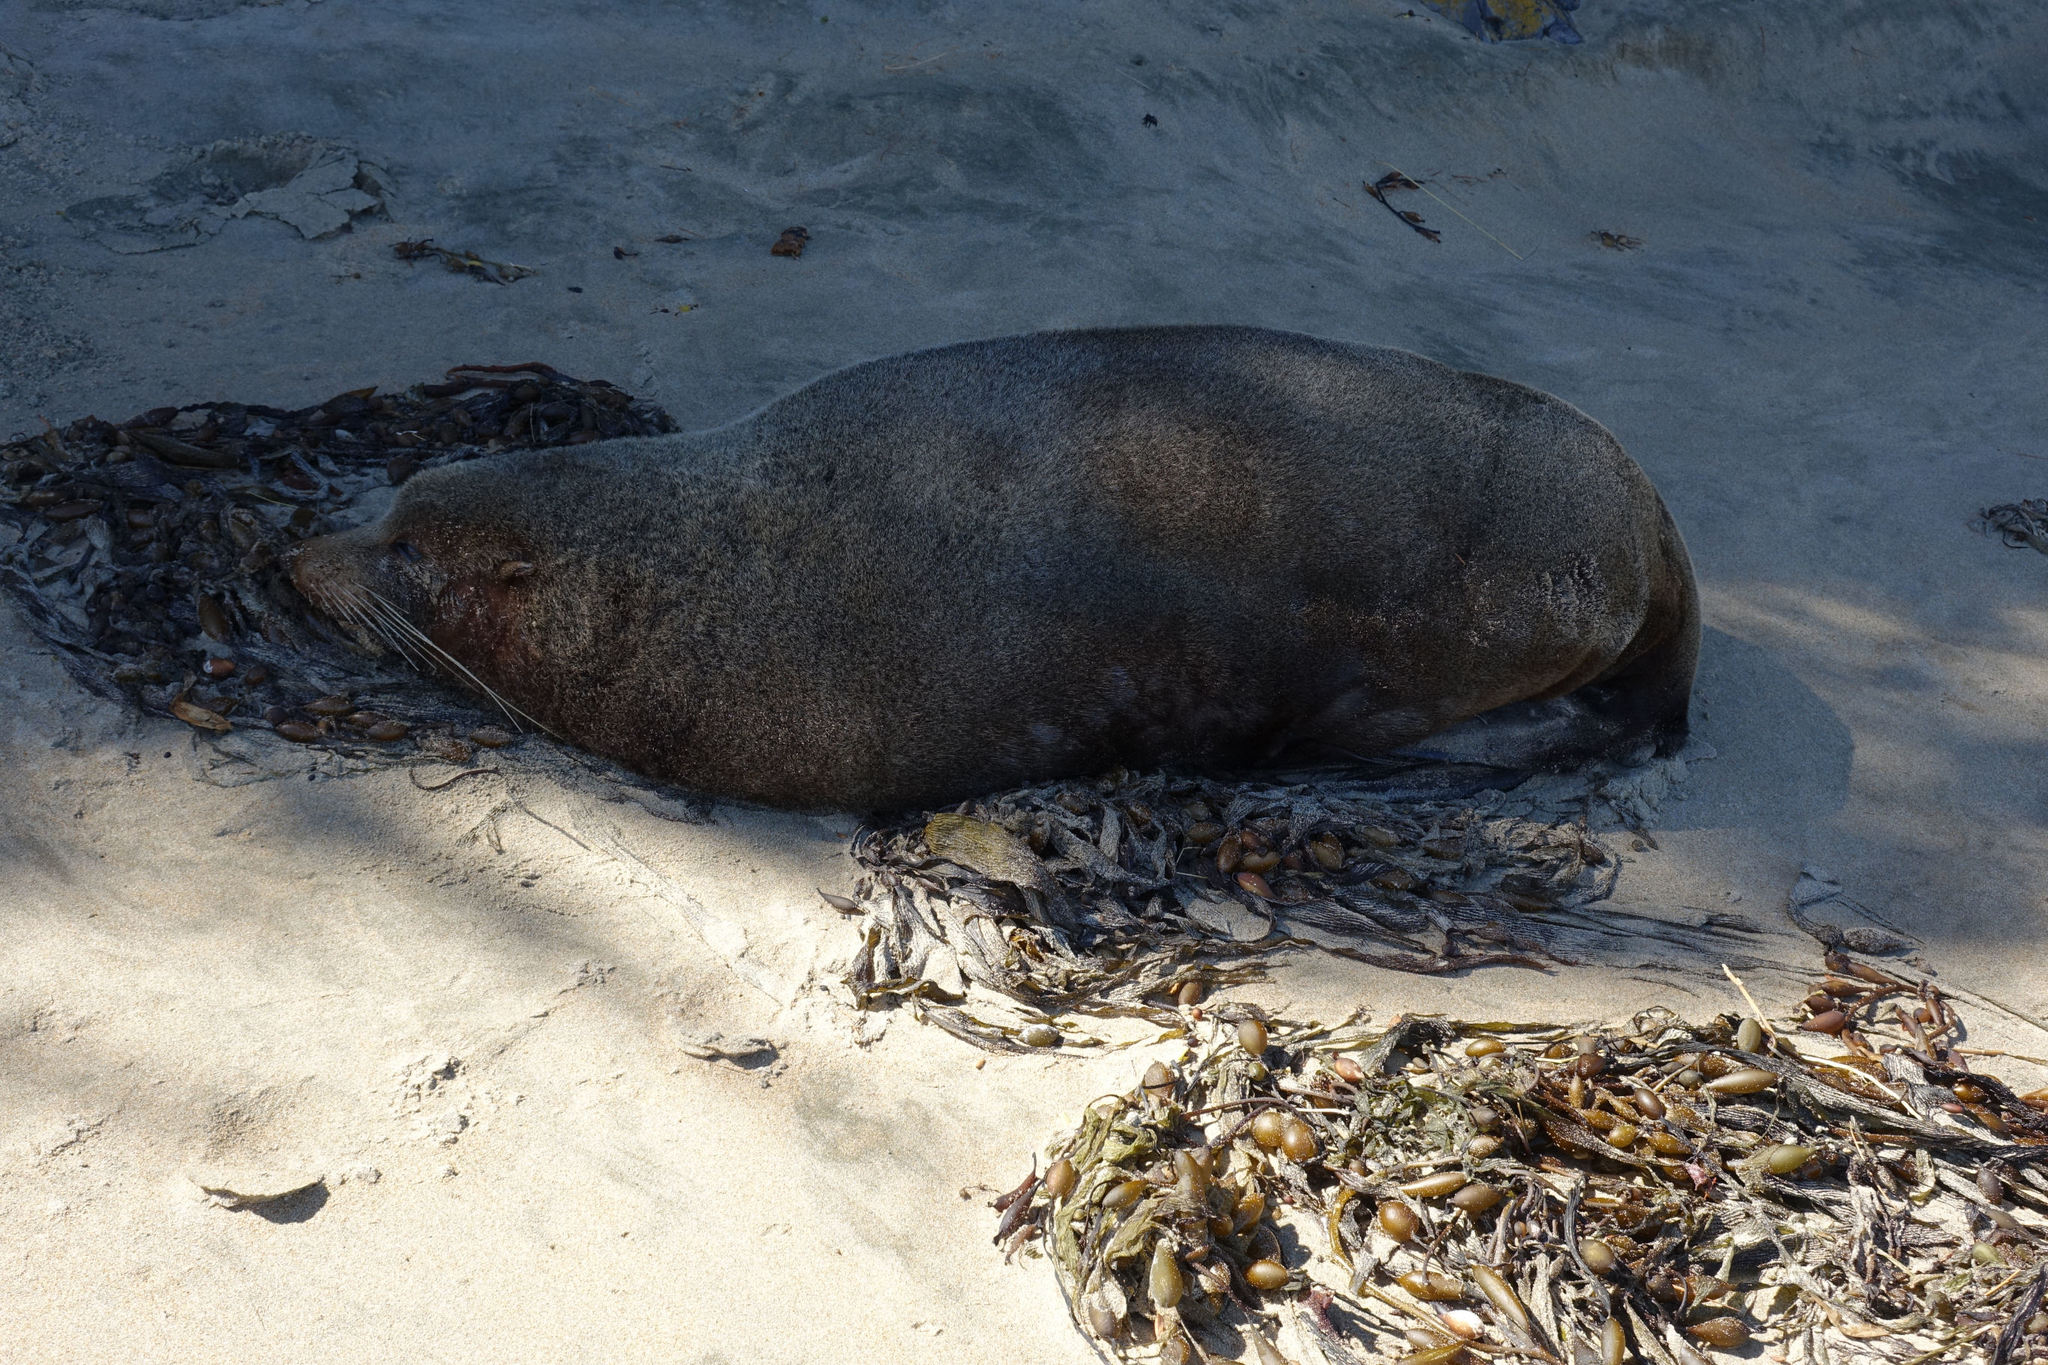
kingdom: Animalia
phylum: Chordata
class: Mammalia
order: Carnivora
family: Otariidae
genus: Arctocephalus
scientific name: Arctocephalus forsteri
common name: New zealand fur seal
